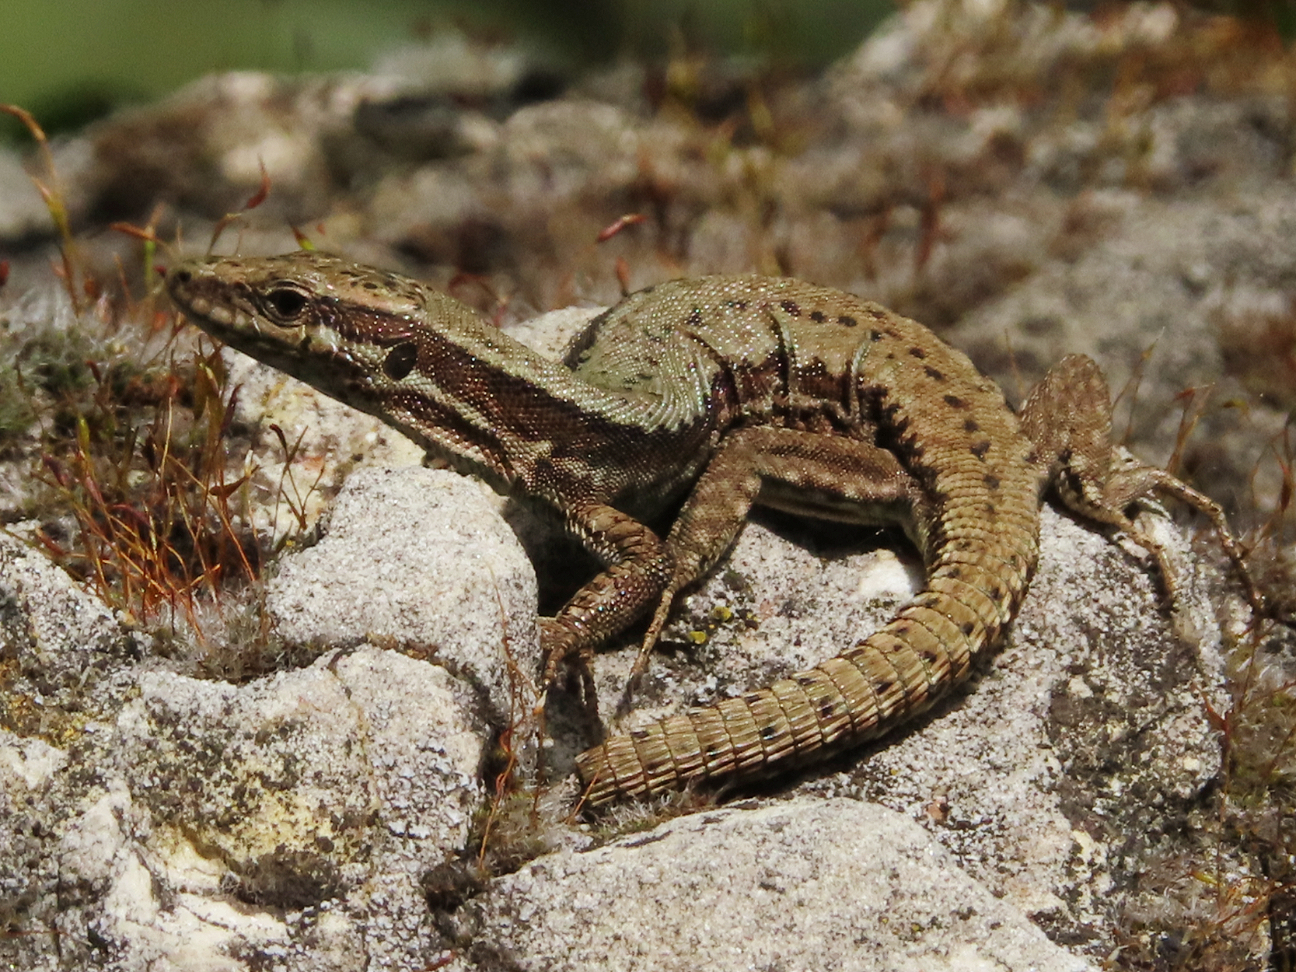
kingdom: Animalia
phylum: Chordata
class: Squamata
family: Lacertidae
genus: Podarcis
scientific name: Podarcis muralis
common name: Common wall lizard
